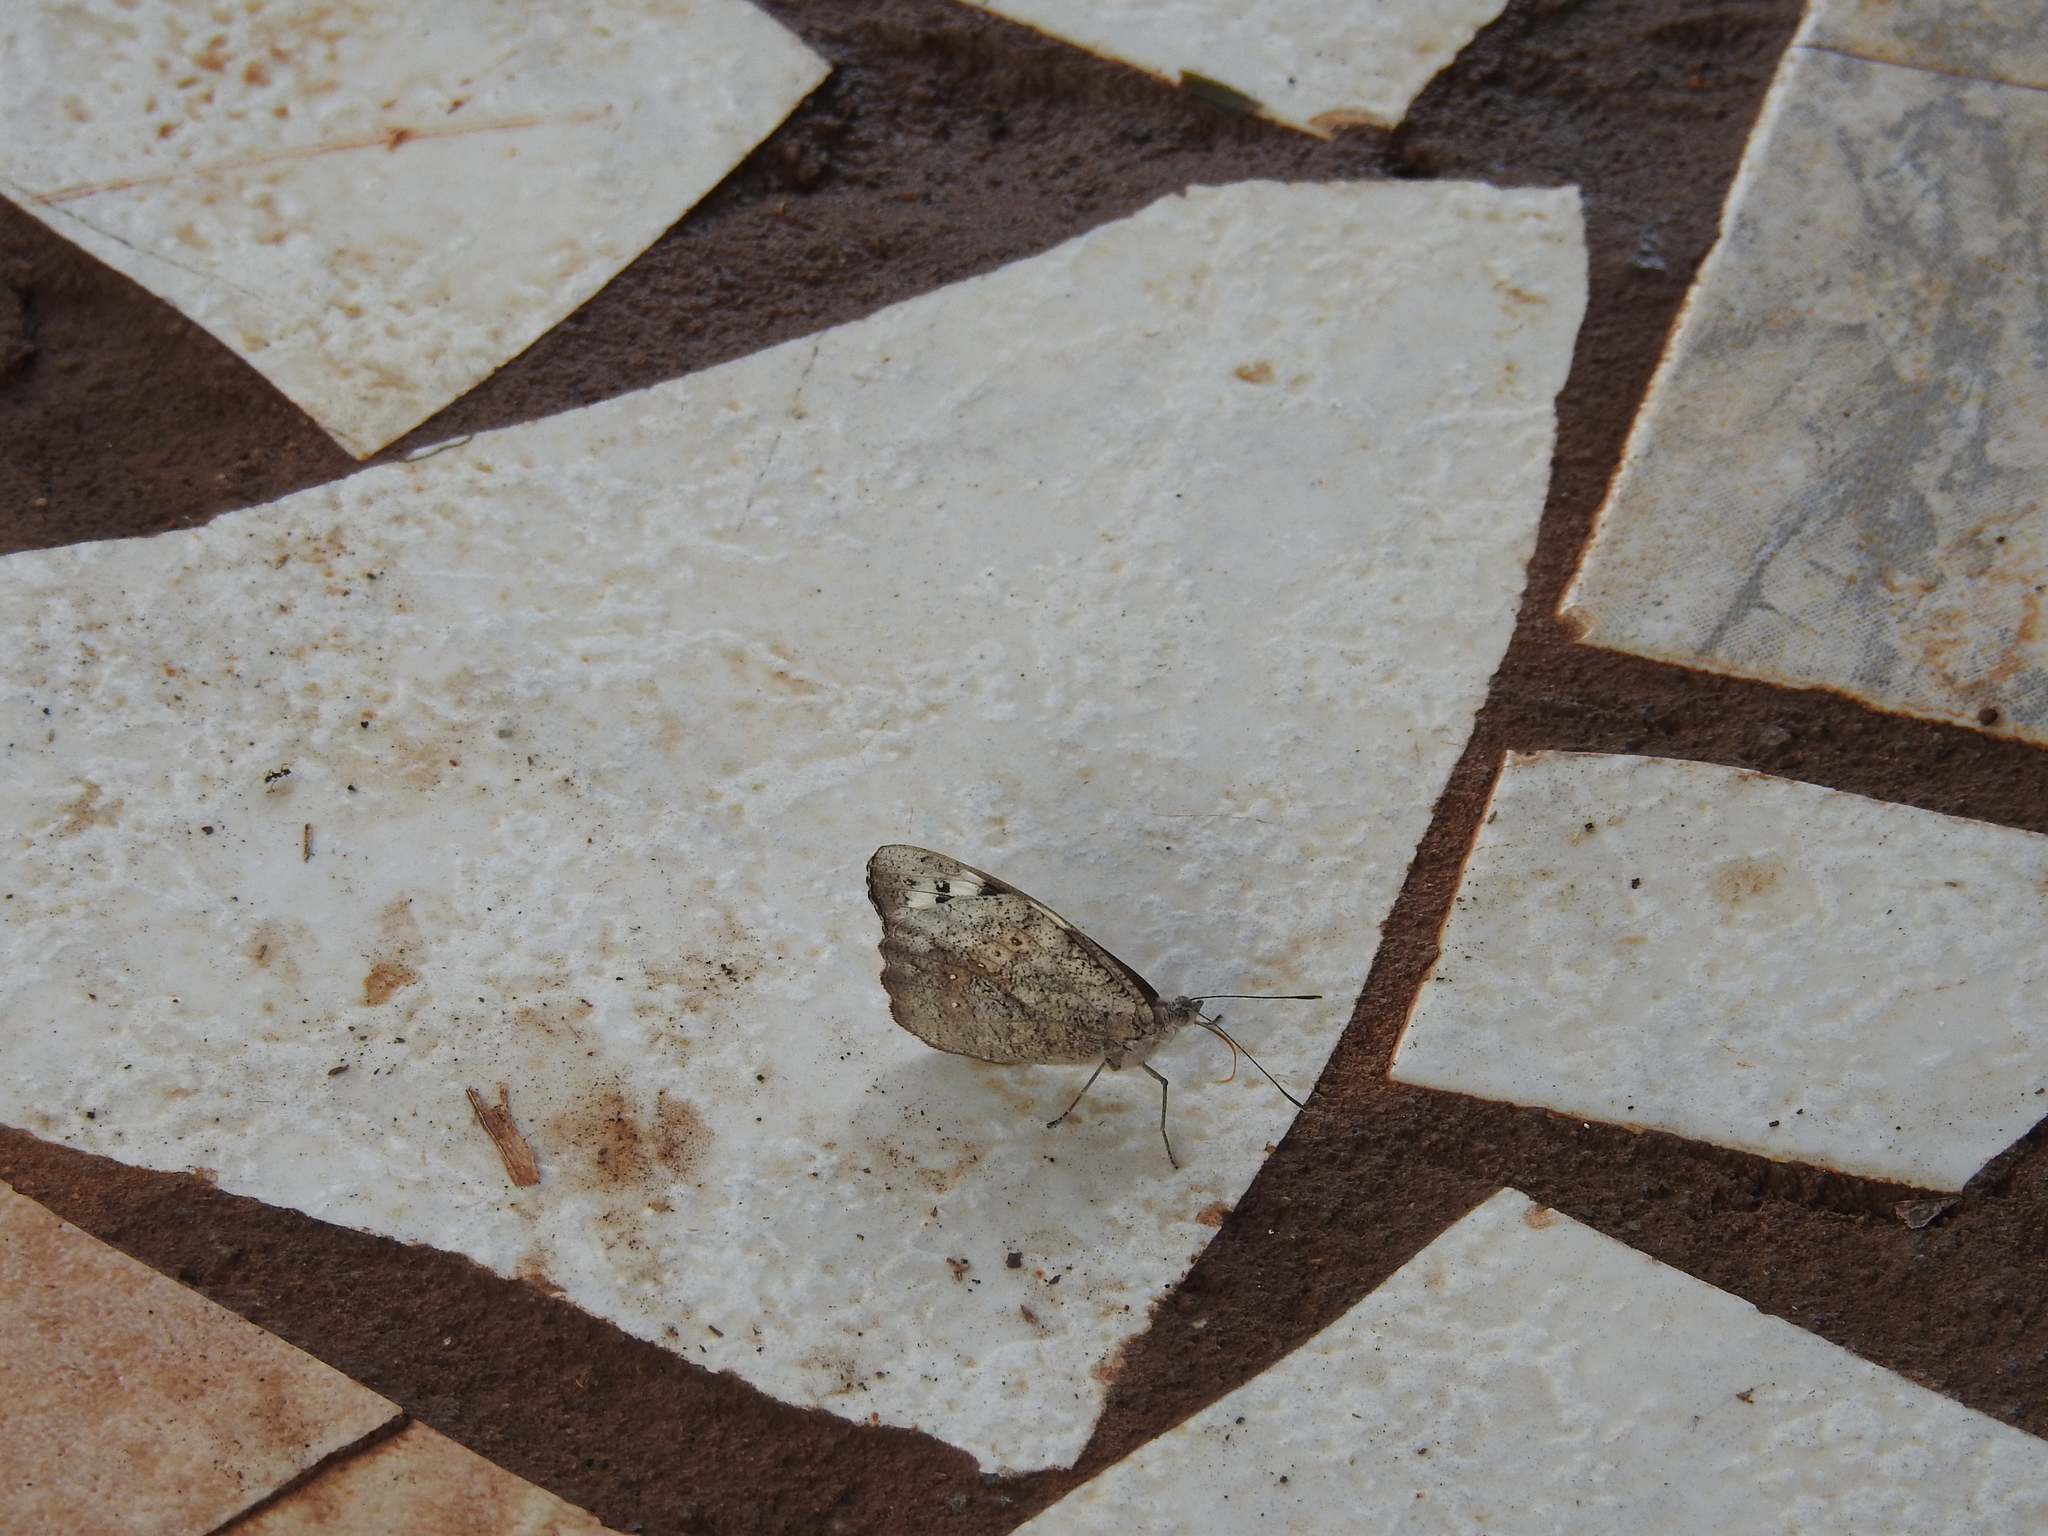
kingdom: Animalia
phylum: Arthropoda
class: Insecta
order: Lepidoptera
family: Nymphalidae
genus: Eunica
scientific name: Eunica eburnea
